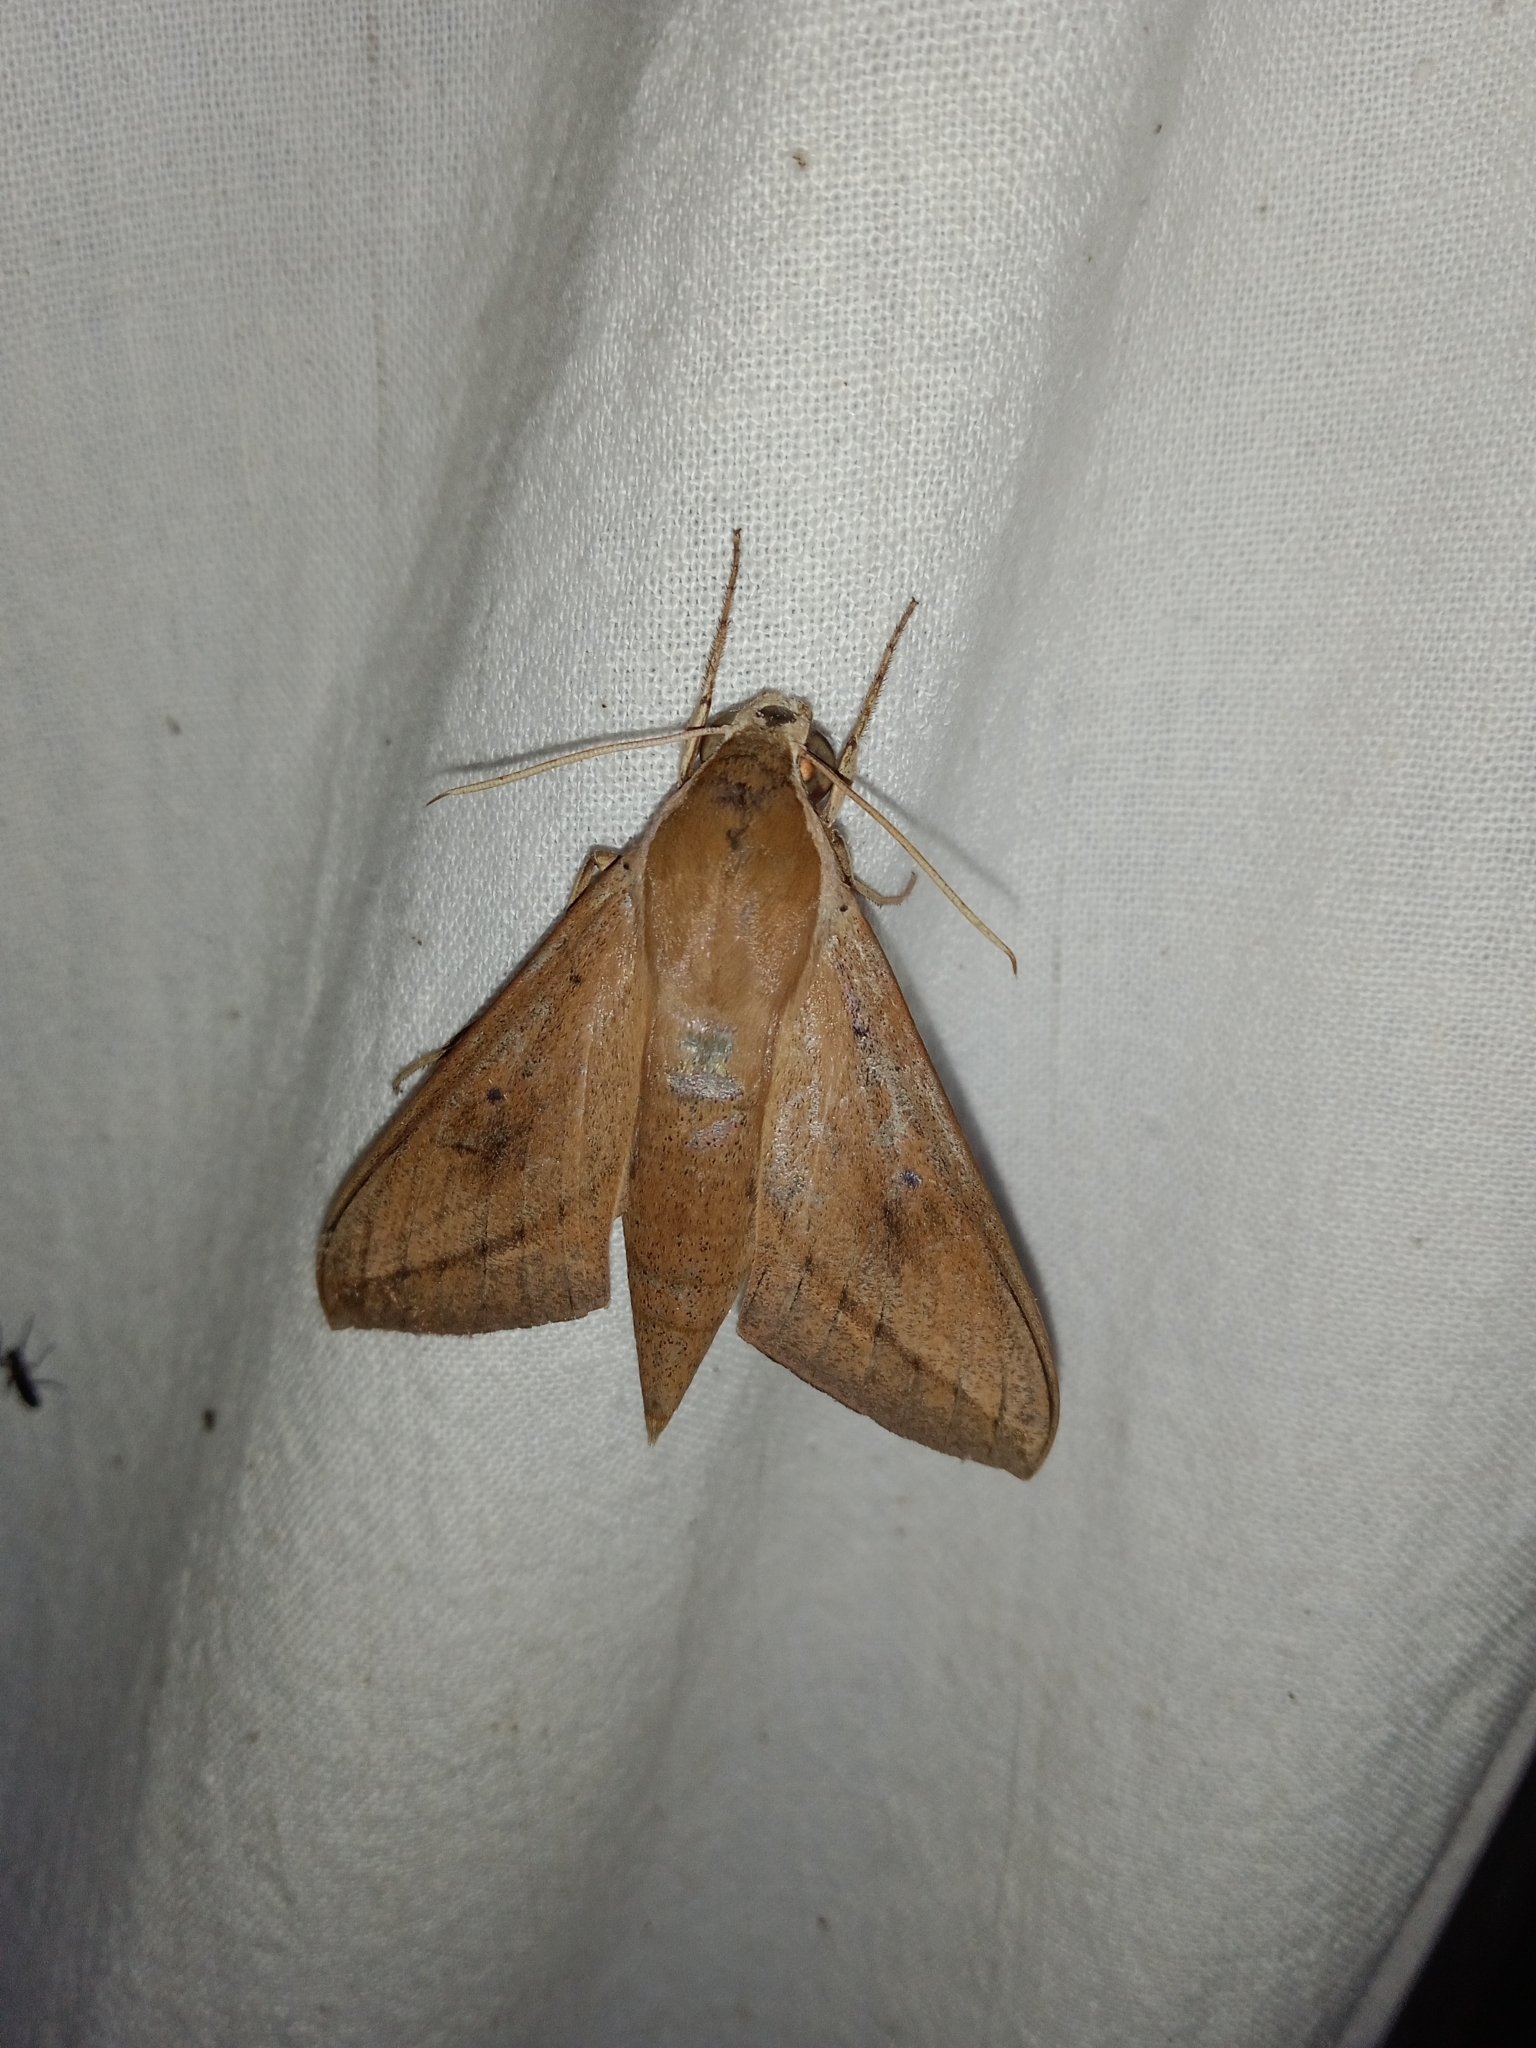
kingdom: Animalia
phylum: Arthropoda
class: Insecta
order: Lepidoptera
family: Sphingidae
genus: Theretra
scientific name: Theretra rhesus
